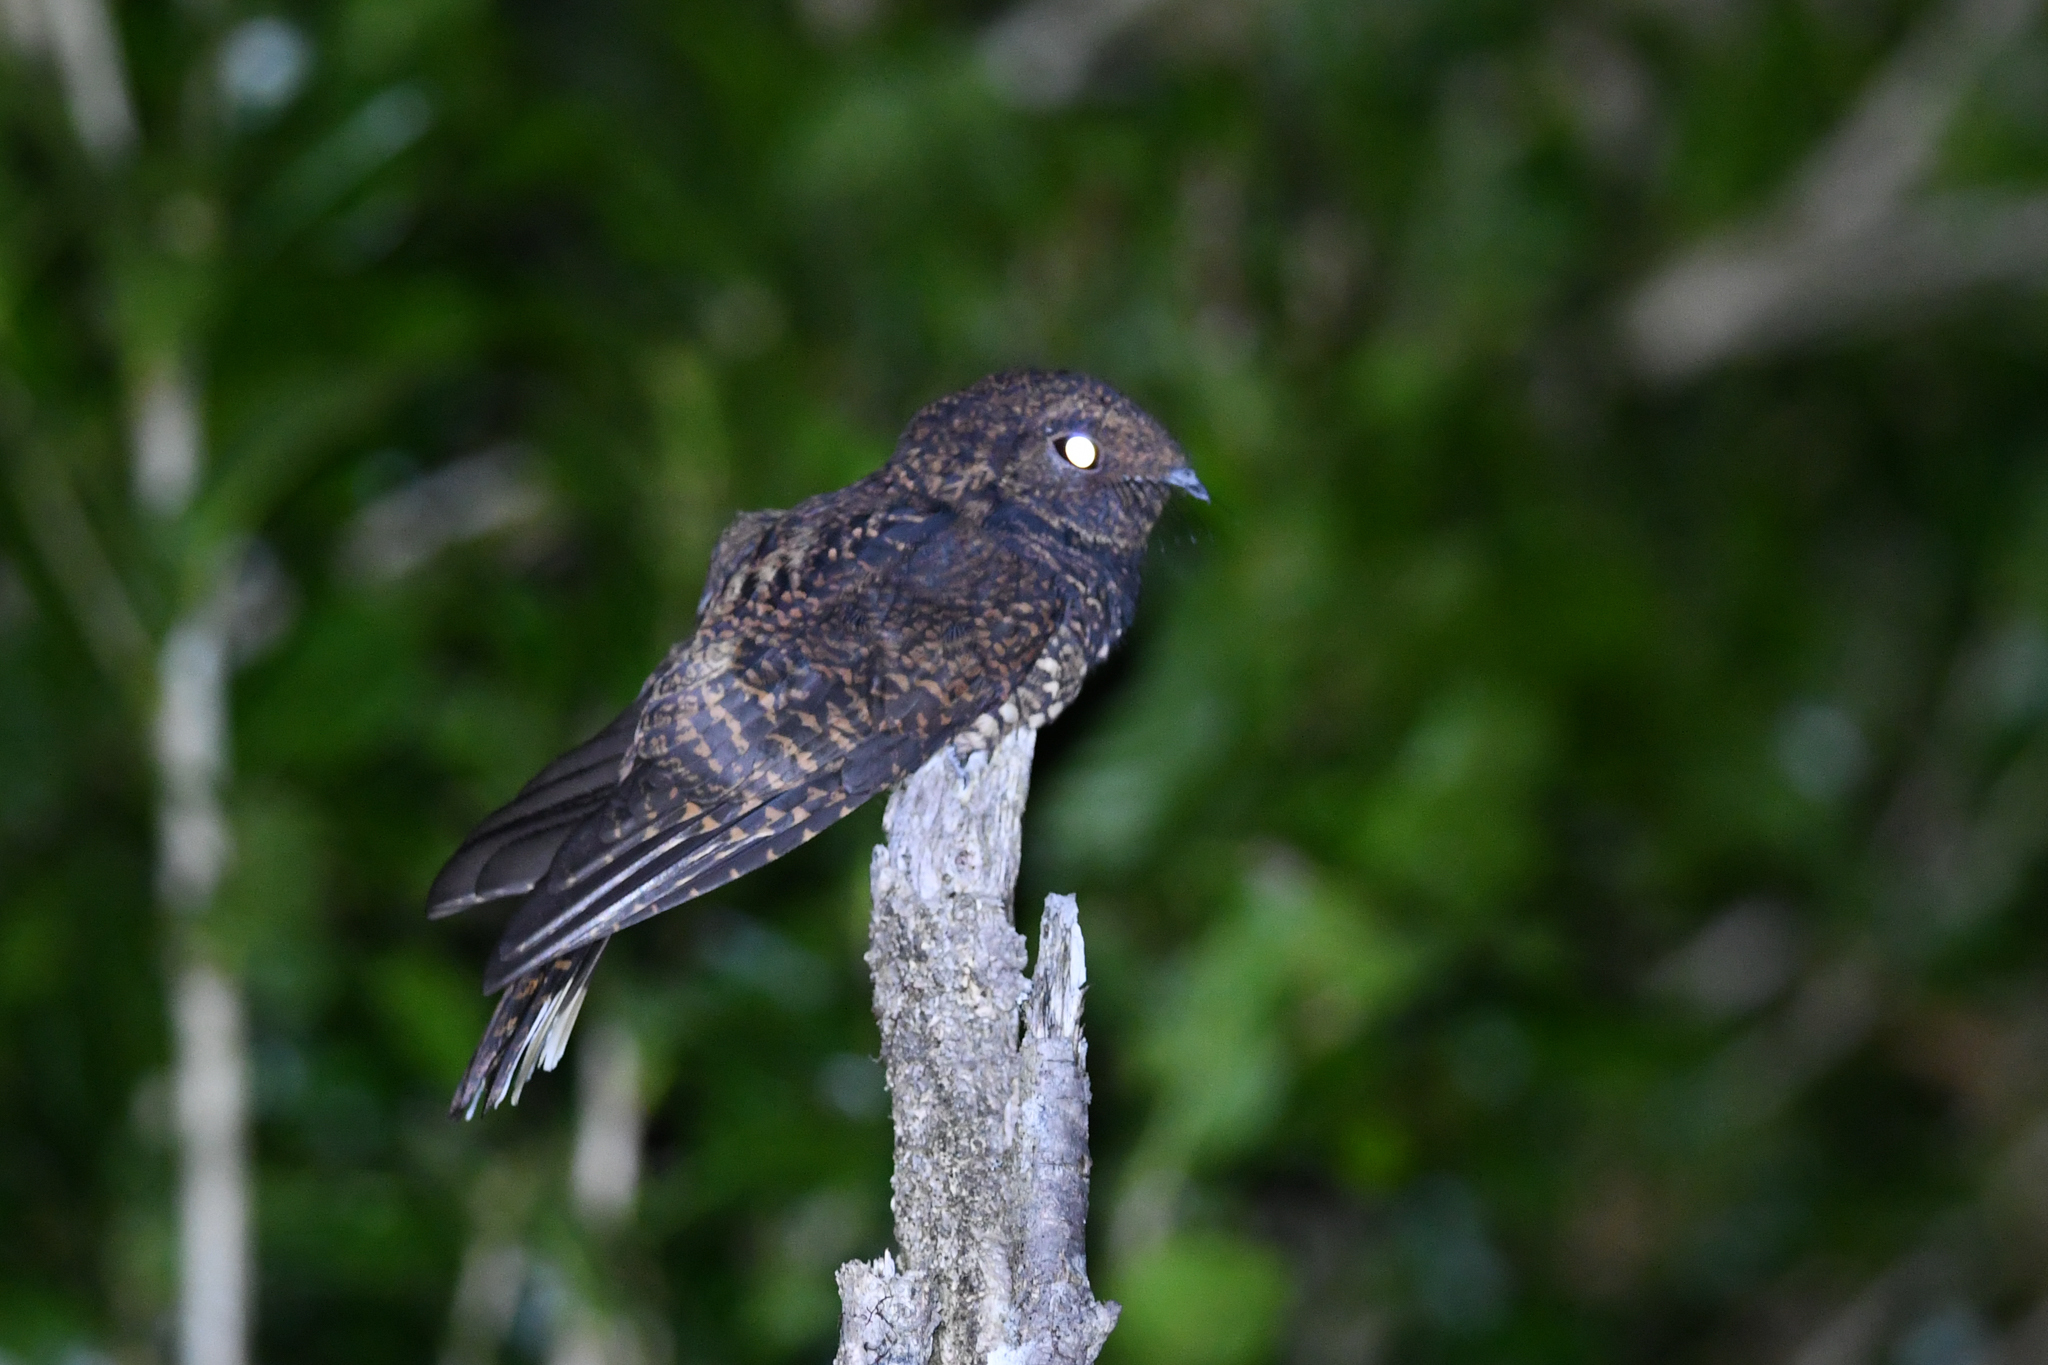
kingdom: Animalia
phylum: Chordata
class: Aves
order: Caprimulgiformes
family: Caprimulgidae
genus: Antrostomus
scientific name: Antrostomus saturatus
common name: Dusky nightjar
